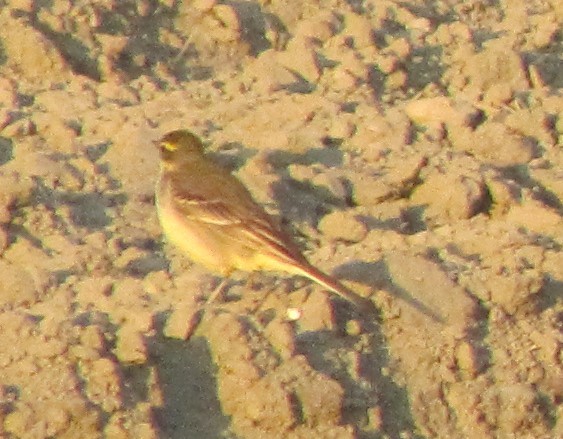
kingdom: Animalia
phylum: Chordata
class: Aves
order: Passeriformes
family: Motacillidae
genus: Motacilla
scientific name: Motacilla tschutschensis
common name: Eastern yellow wagtail
